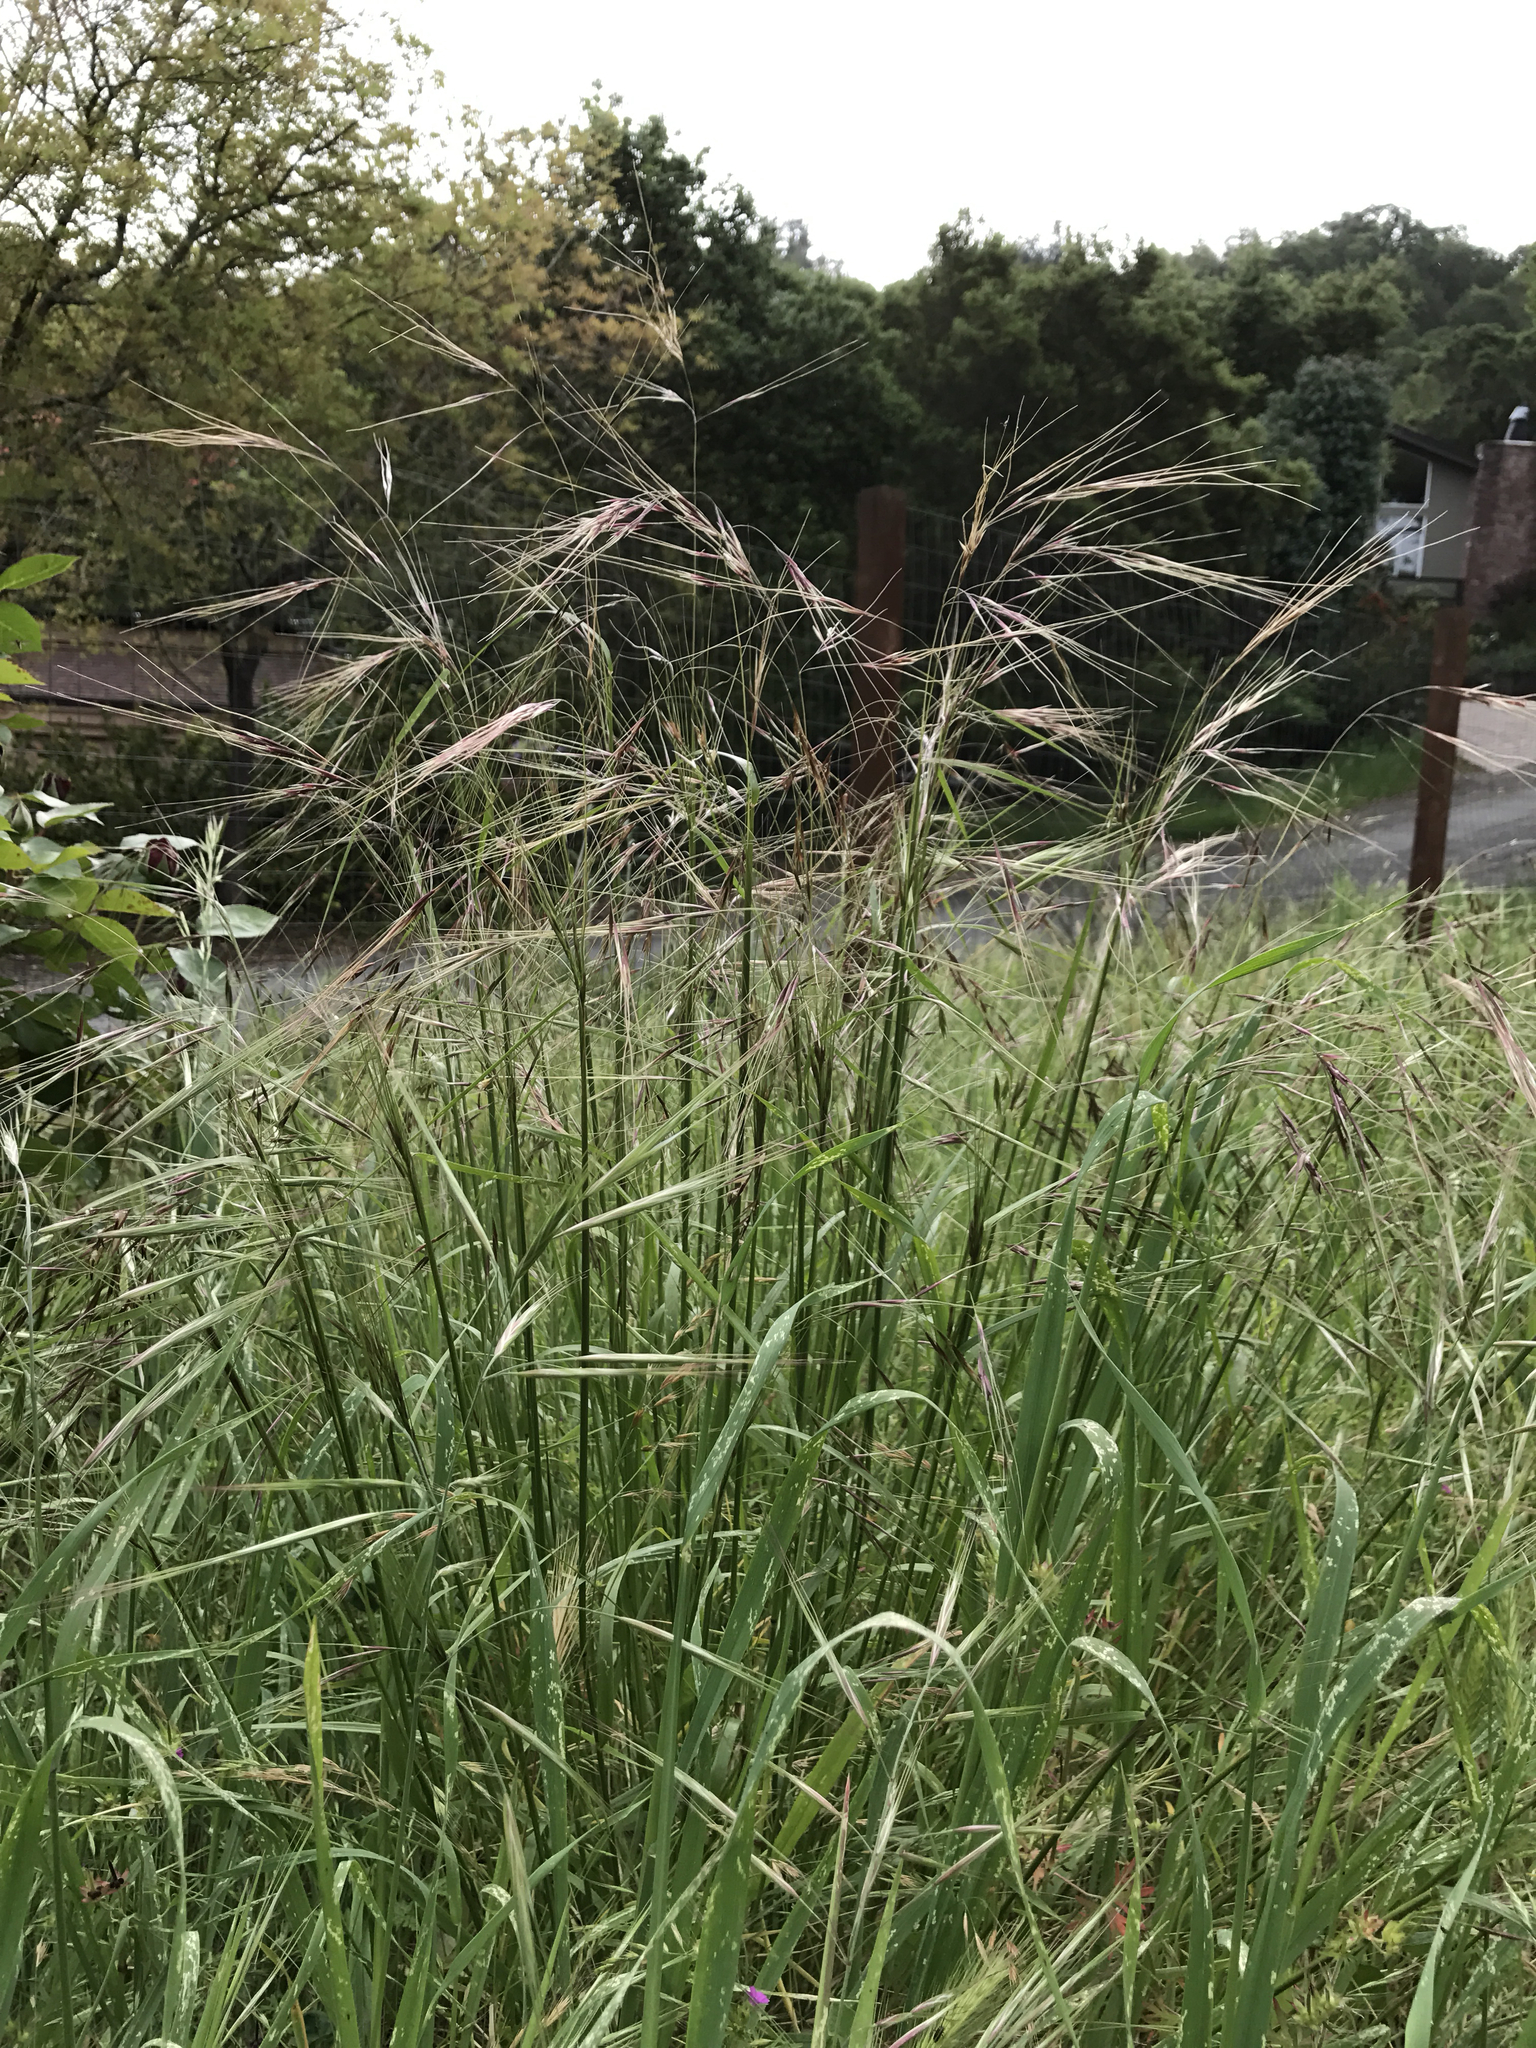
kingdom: Plantae
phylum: Tracheophyta
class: Liliopsida
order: Poales
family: Poaceae
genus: Nassella
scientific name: Nassella pulchra
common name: Purple needlegrass
